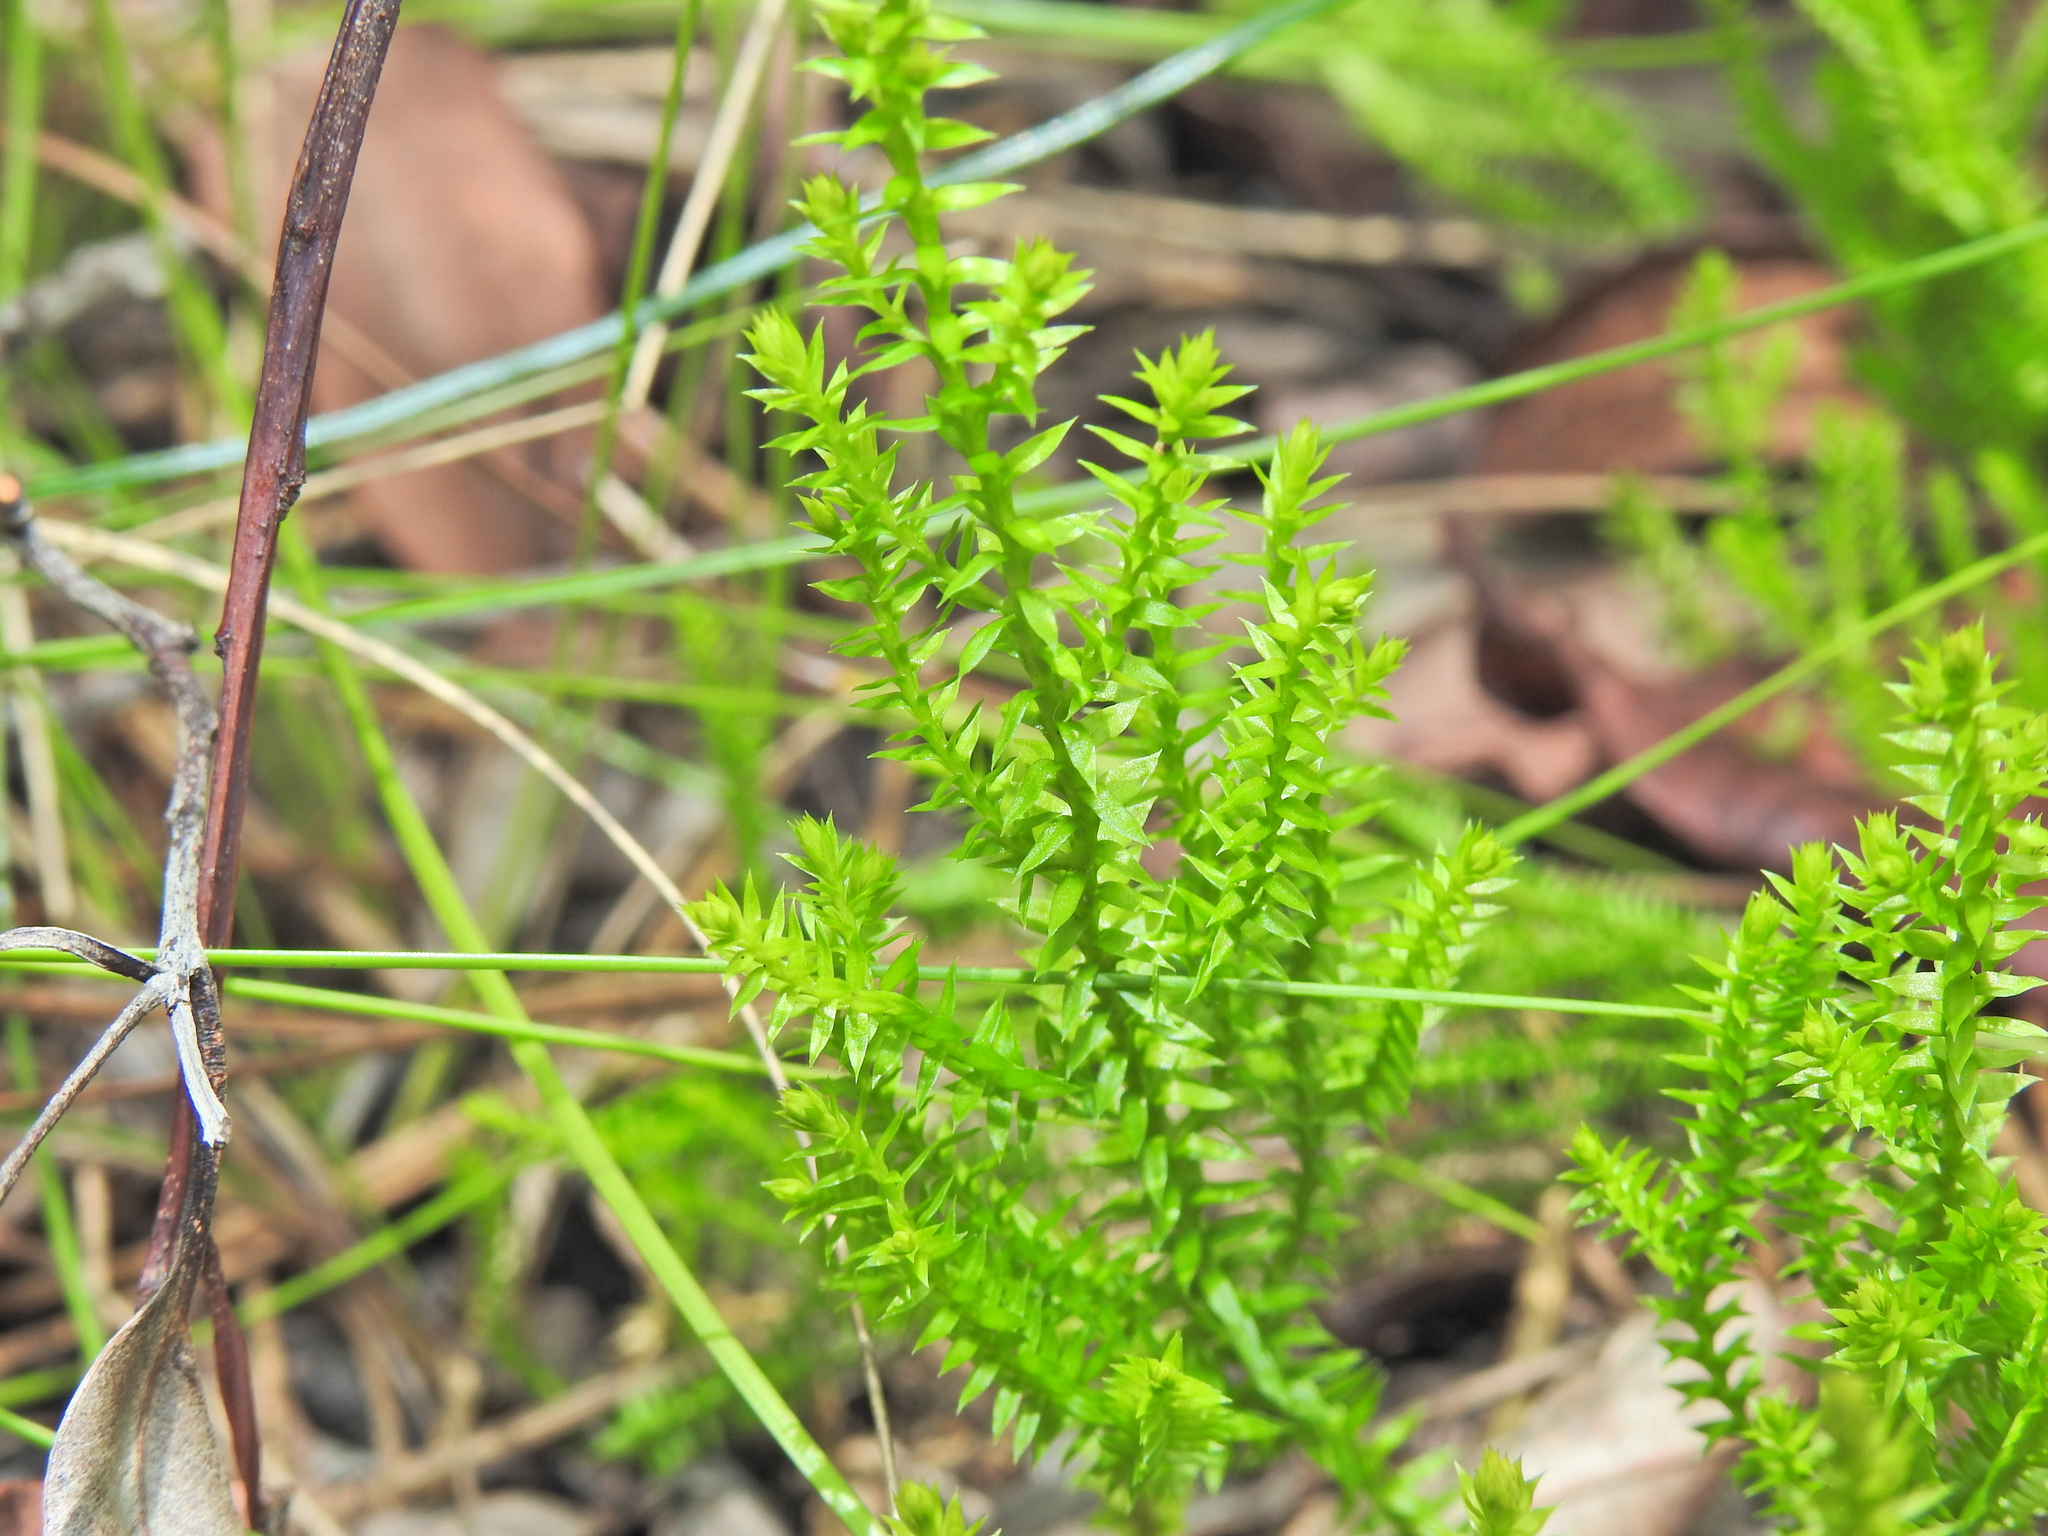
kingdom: Plantae
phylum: Tracheophyta
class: Lycopodiopsida
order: Selaginellales
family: Selaginellaceae
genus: Selaginella
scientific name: Selaginella uliginosa
